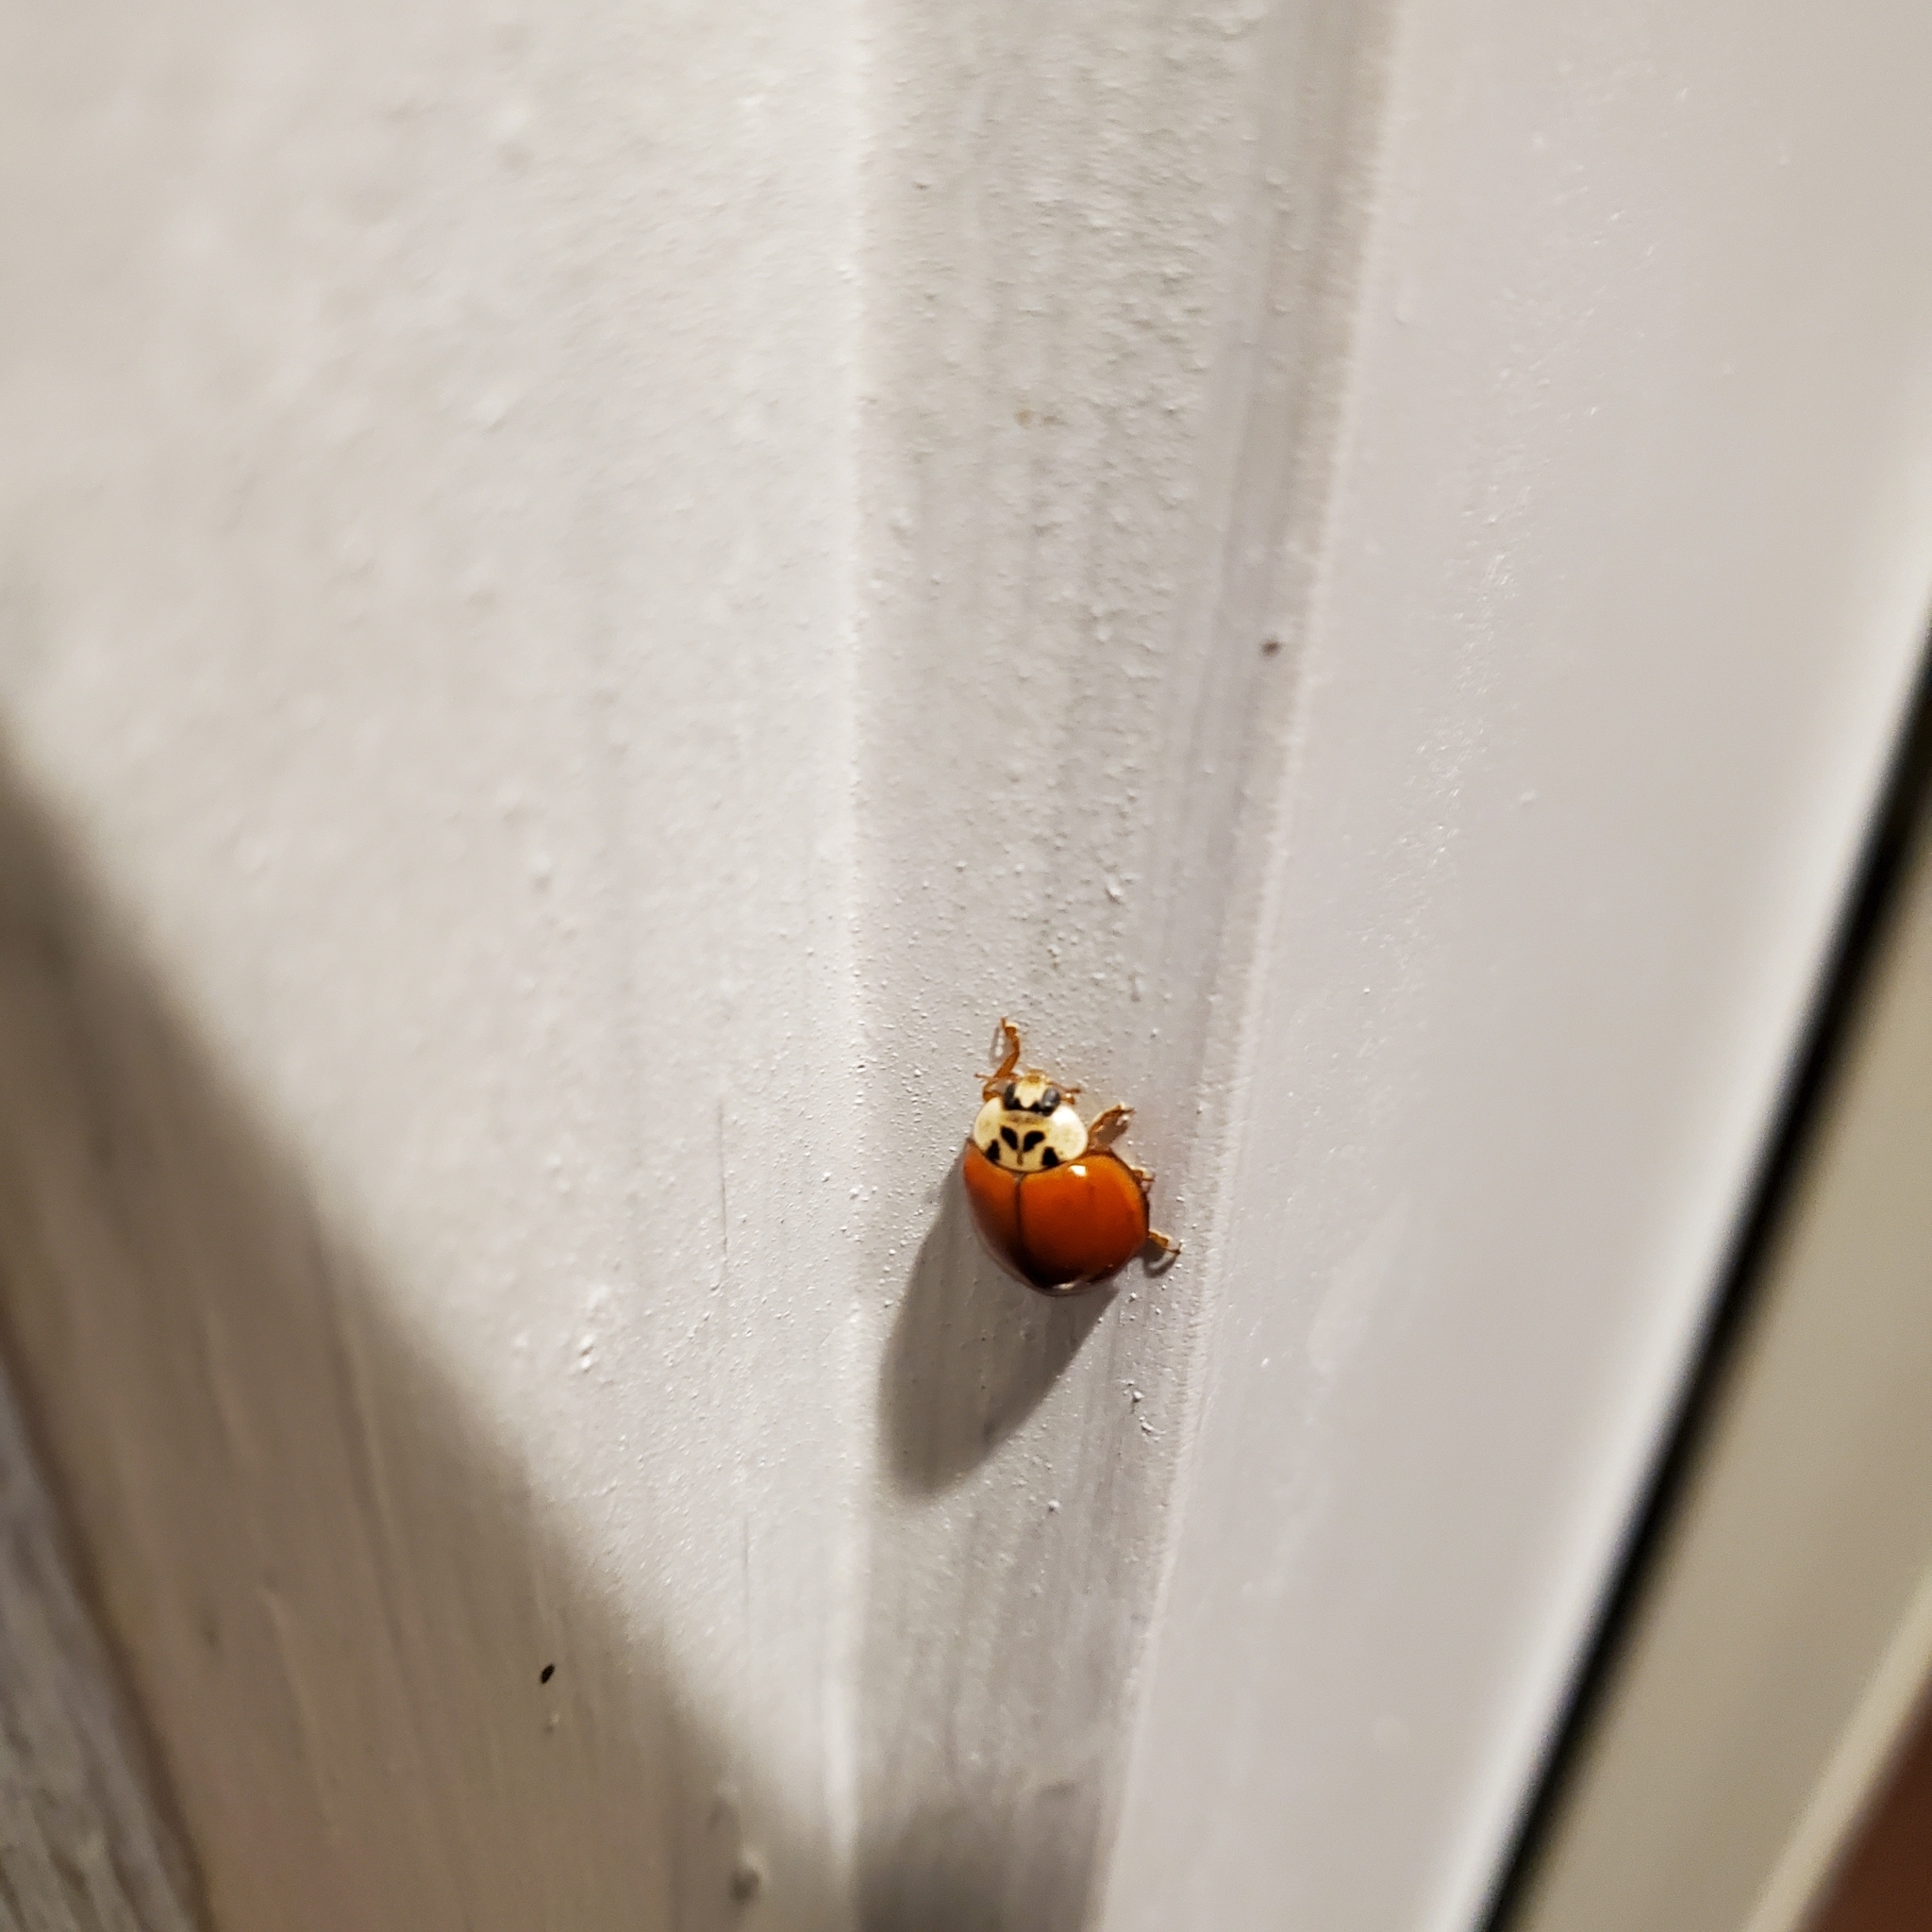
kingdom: Animalia
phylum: Arthropoda
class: Insecta
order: Coleoptera
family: Coccinellidae
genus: Harmonia
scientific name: Harmonia axyridis
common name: Harlequin ladybird
